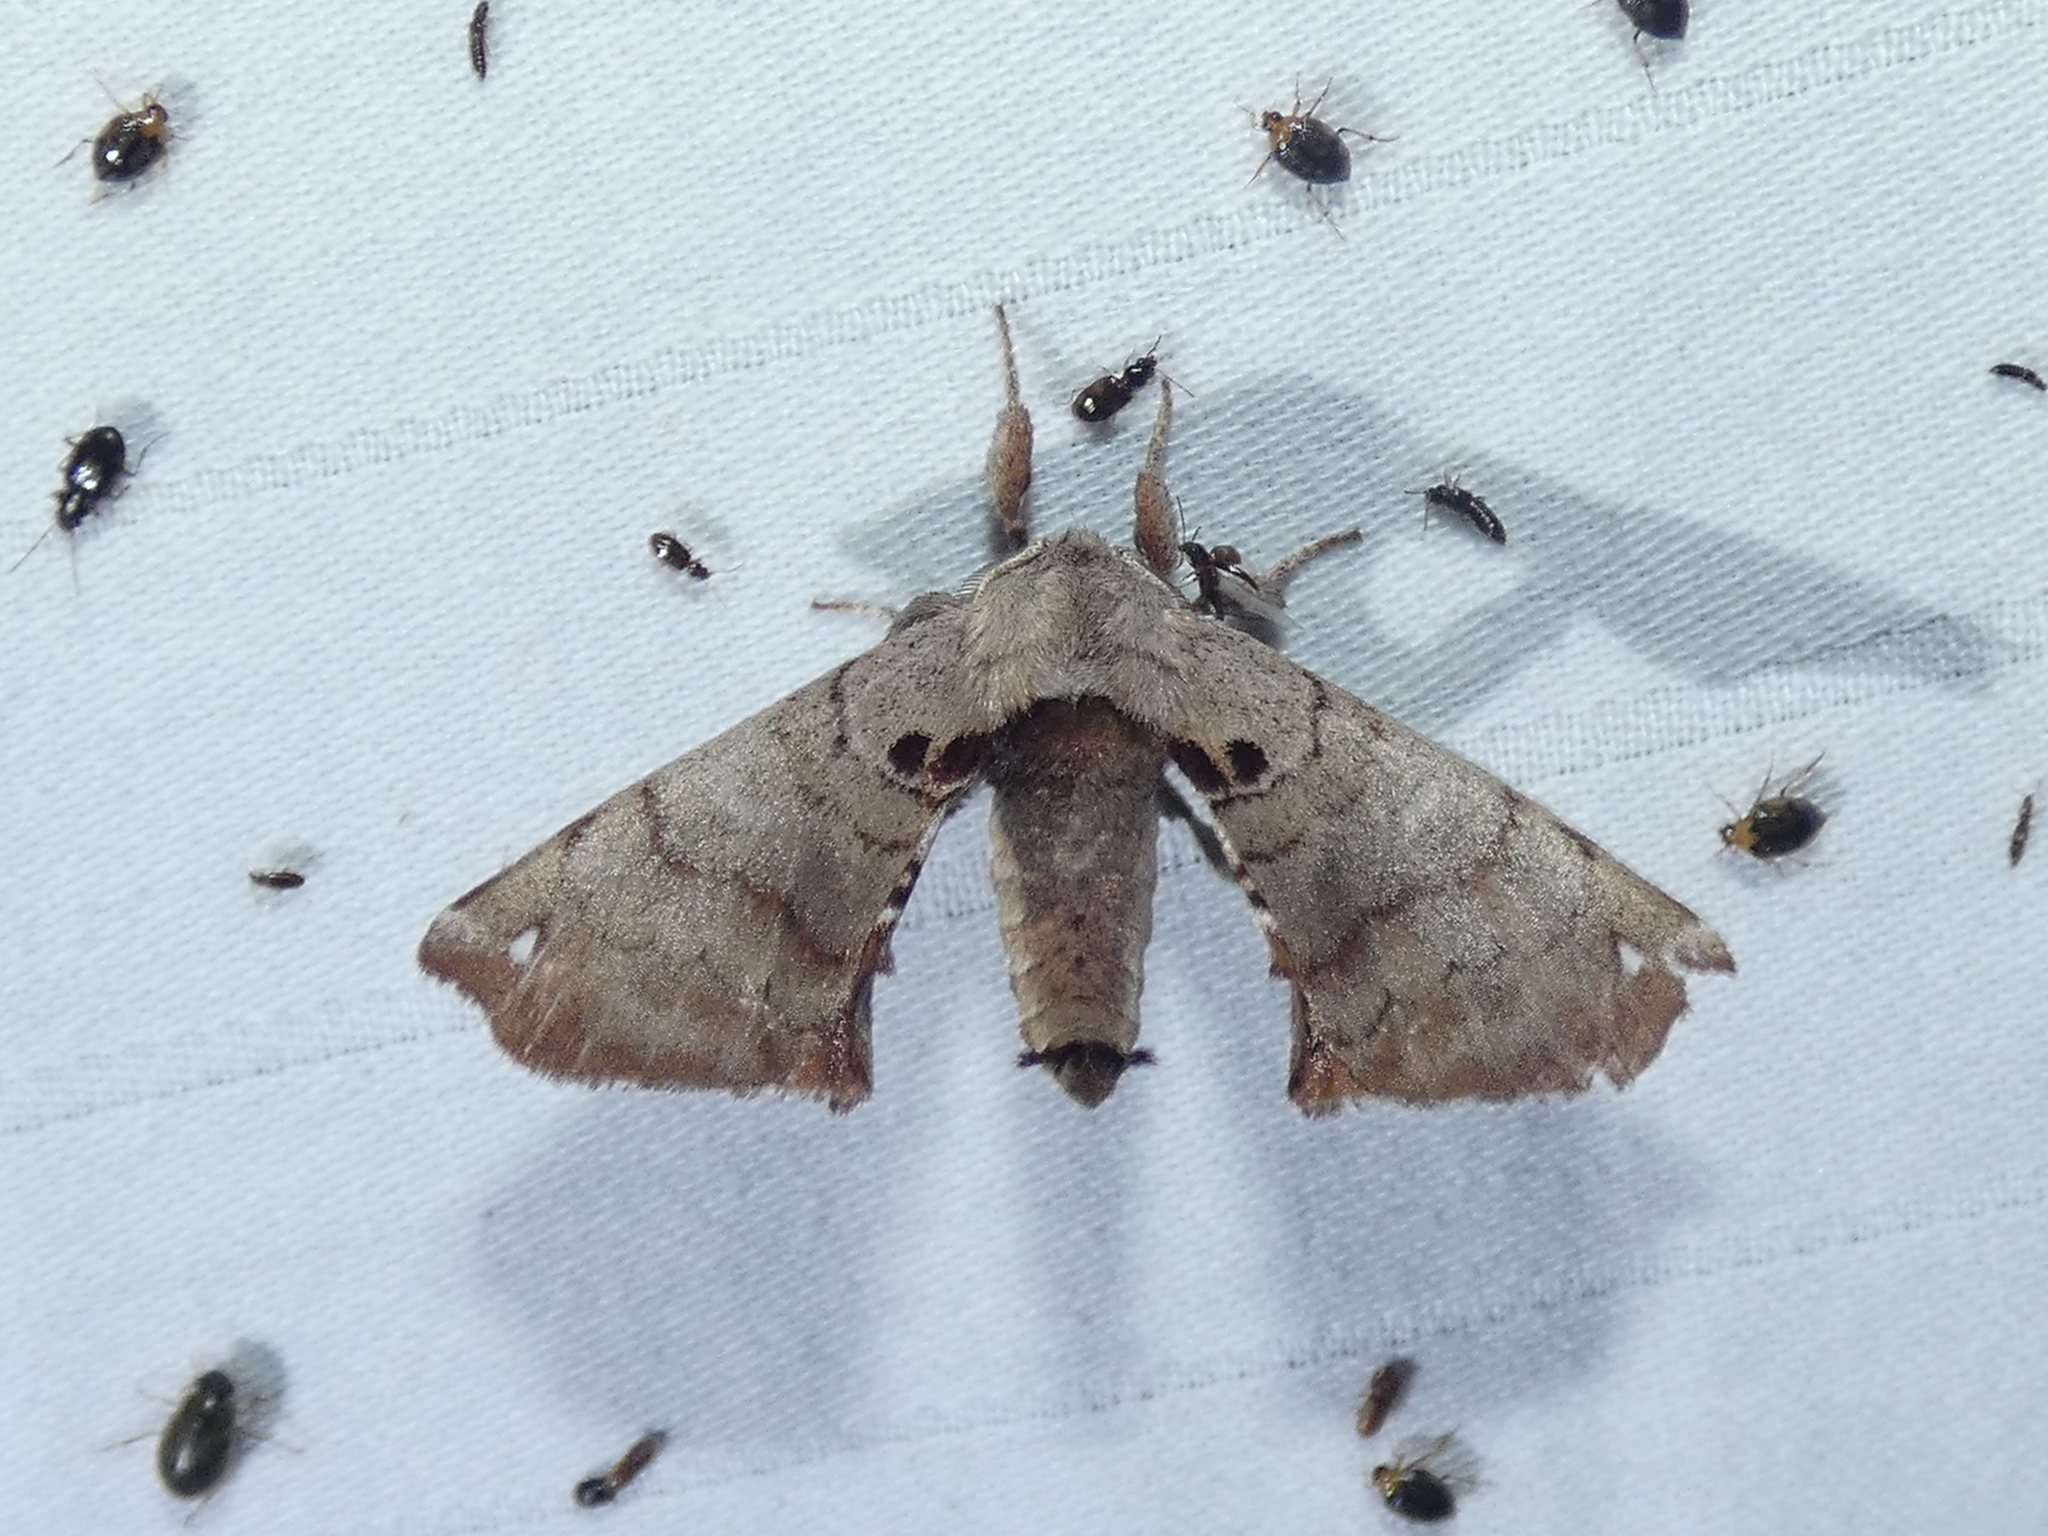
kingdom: Animalia
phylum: Arthropoda
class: Insecta
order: Lepidoptera
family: Apatelodidae
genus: Hygrochroa
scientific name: Hygrochroa Apatelodes torrefacta
